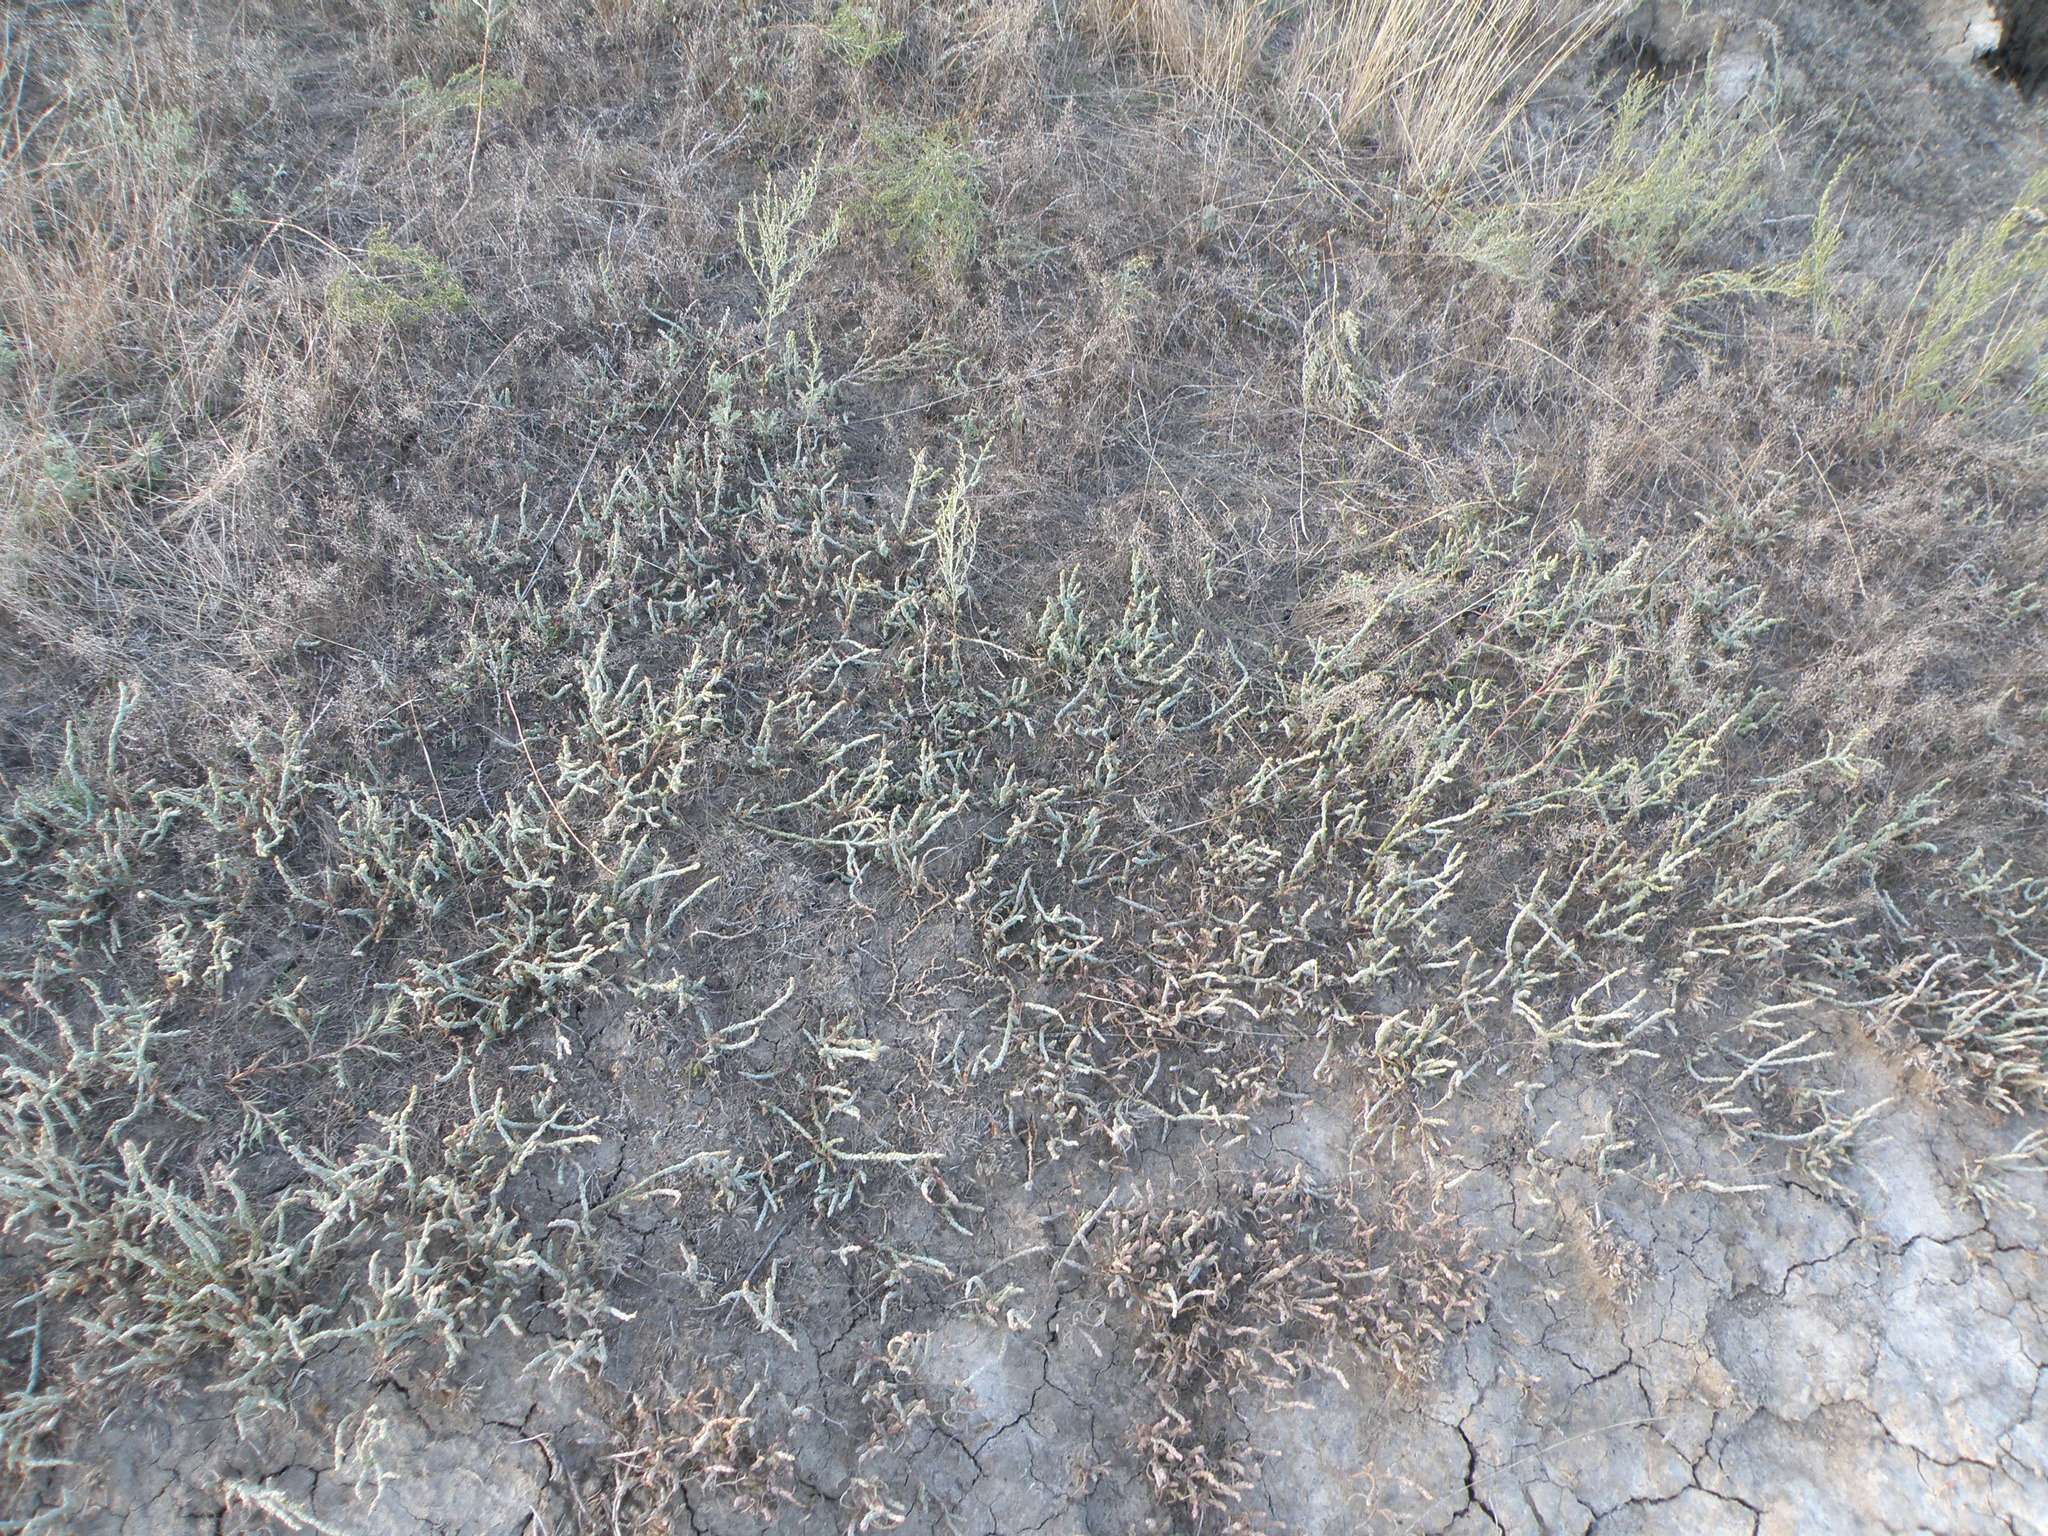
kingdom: Plantae
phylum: Tracheophyta
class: Magnoliopsida
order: Caryophyllales
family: Amaranthaceae
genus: Ofaiston
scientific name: Ofaiston monandrum
